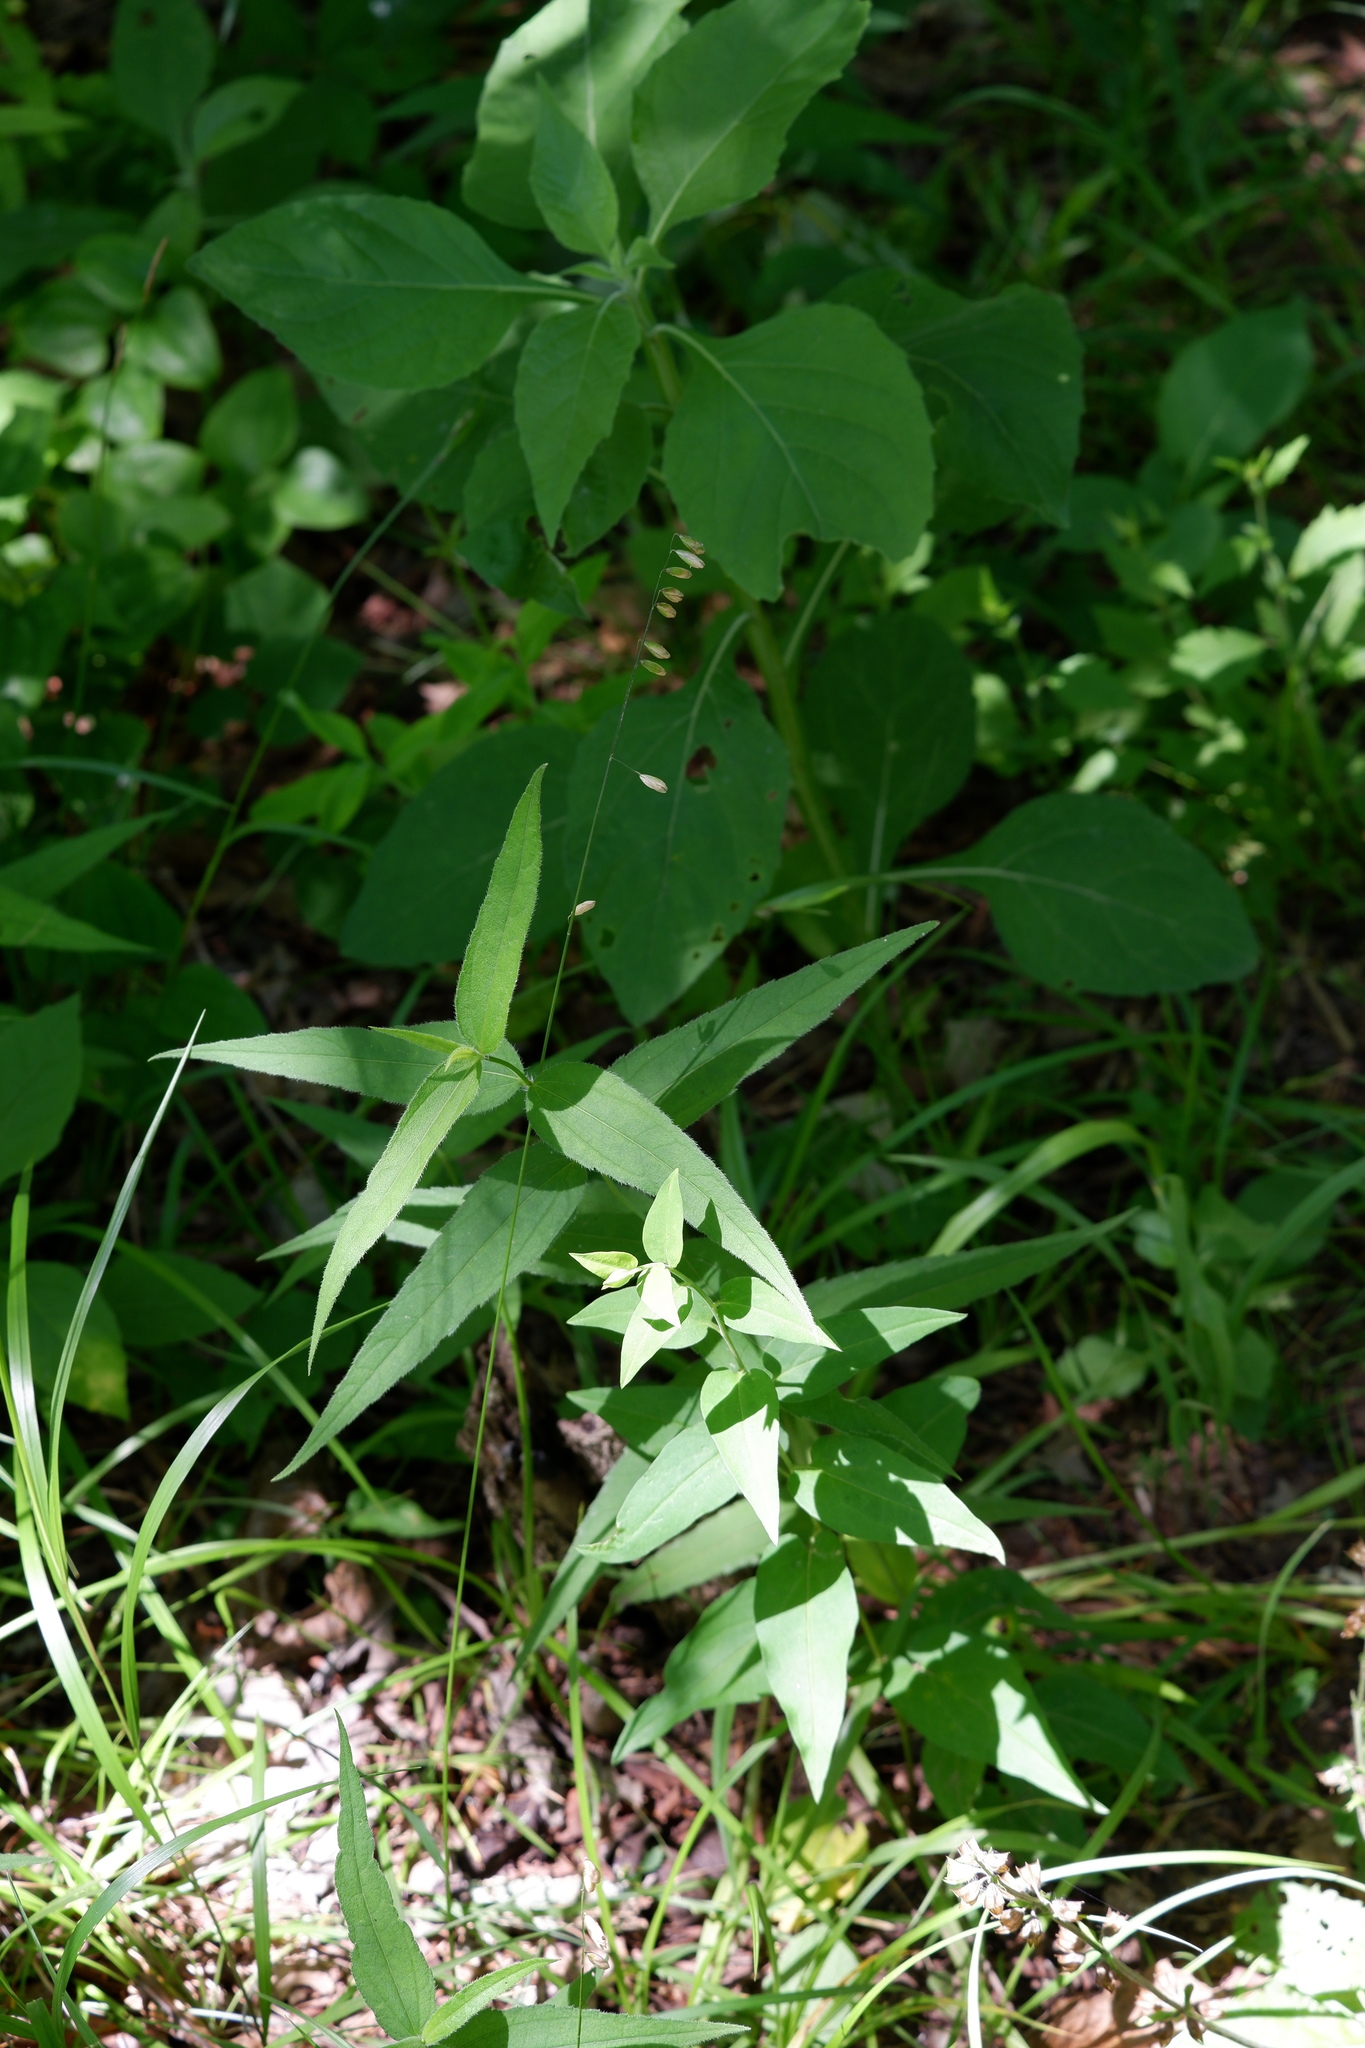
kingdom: Plantae
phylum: Tracheophyta
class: Liliopsida
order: Poales
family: Poaceae
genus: Melica
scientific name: Melica mutica
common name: Two-flower melic
